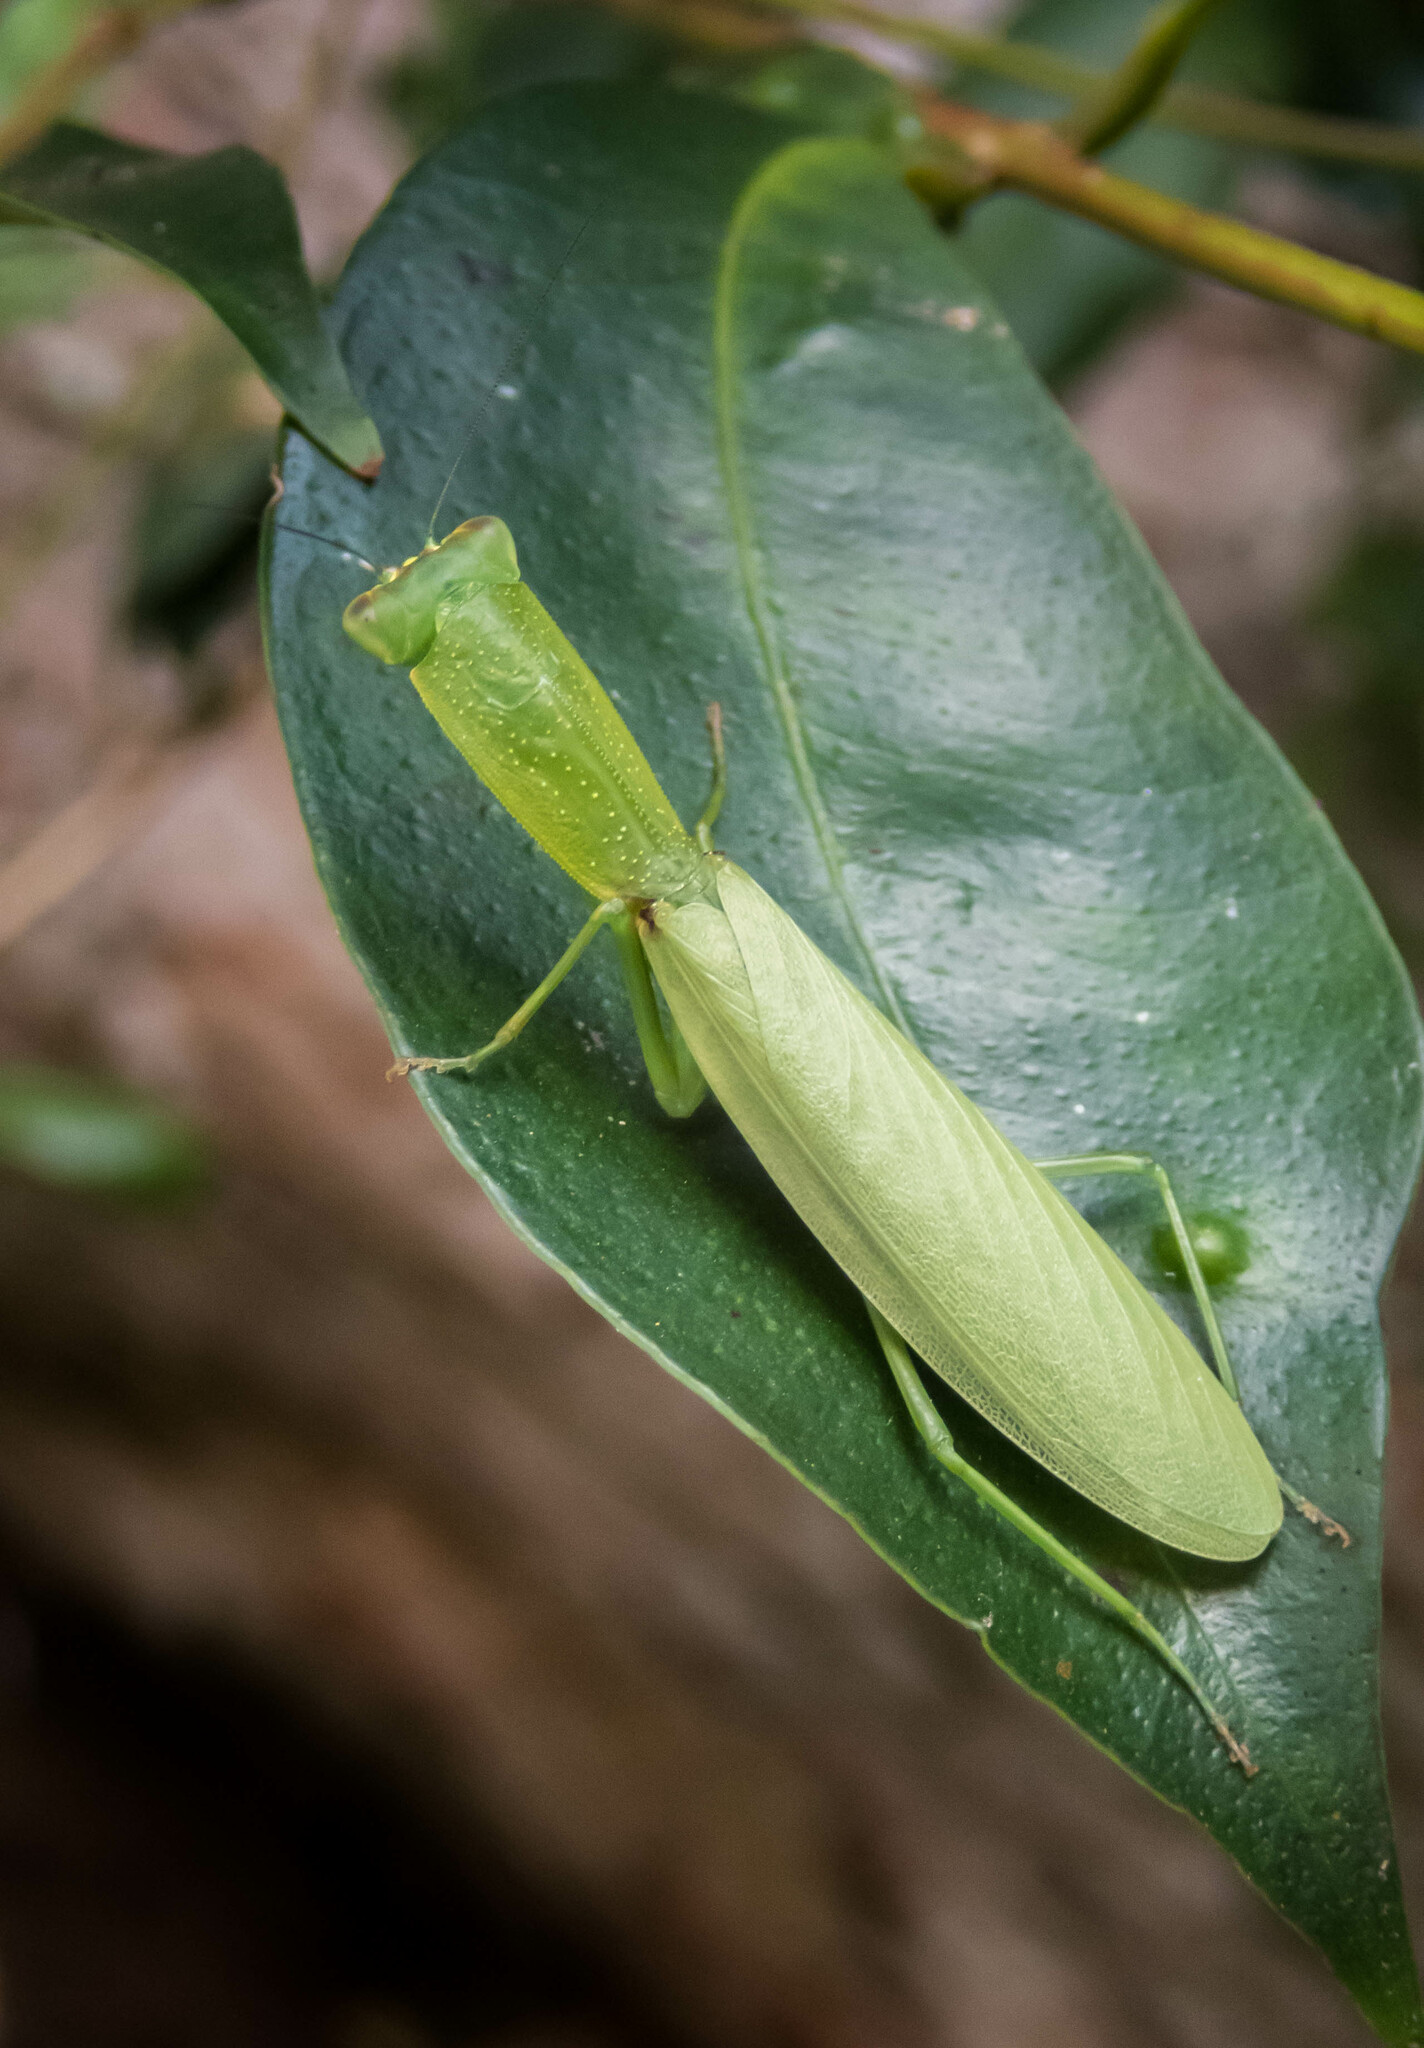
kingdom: Animalia
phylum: Arthropoda
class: Insecta
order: Mantodea
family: Mantidae
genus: Orthodera
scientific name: Orthodera ministralis
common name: Mantis
